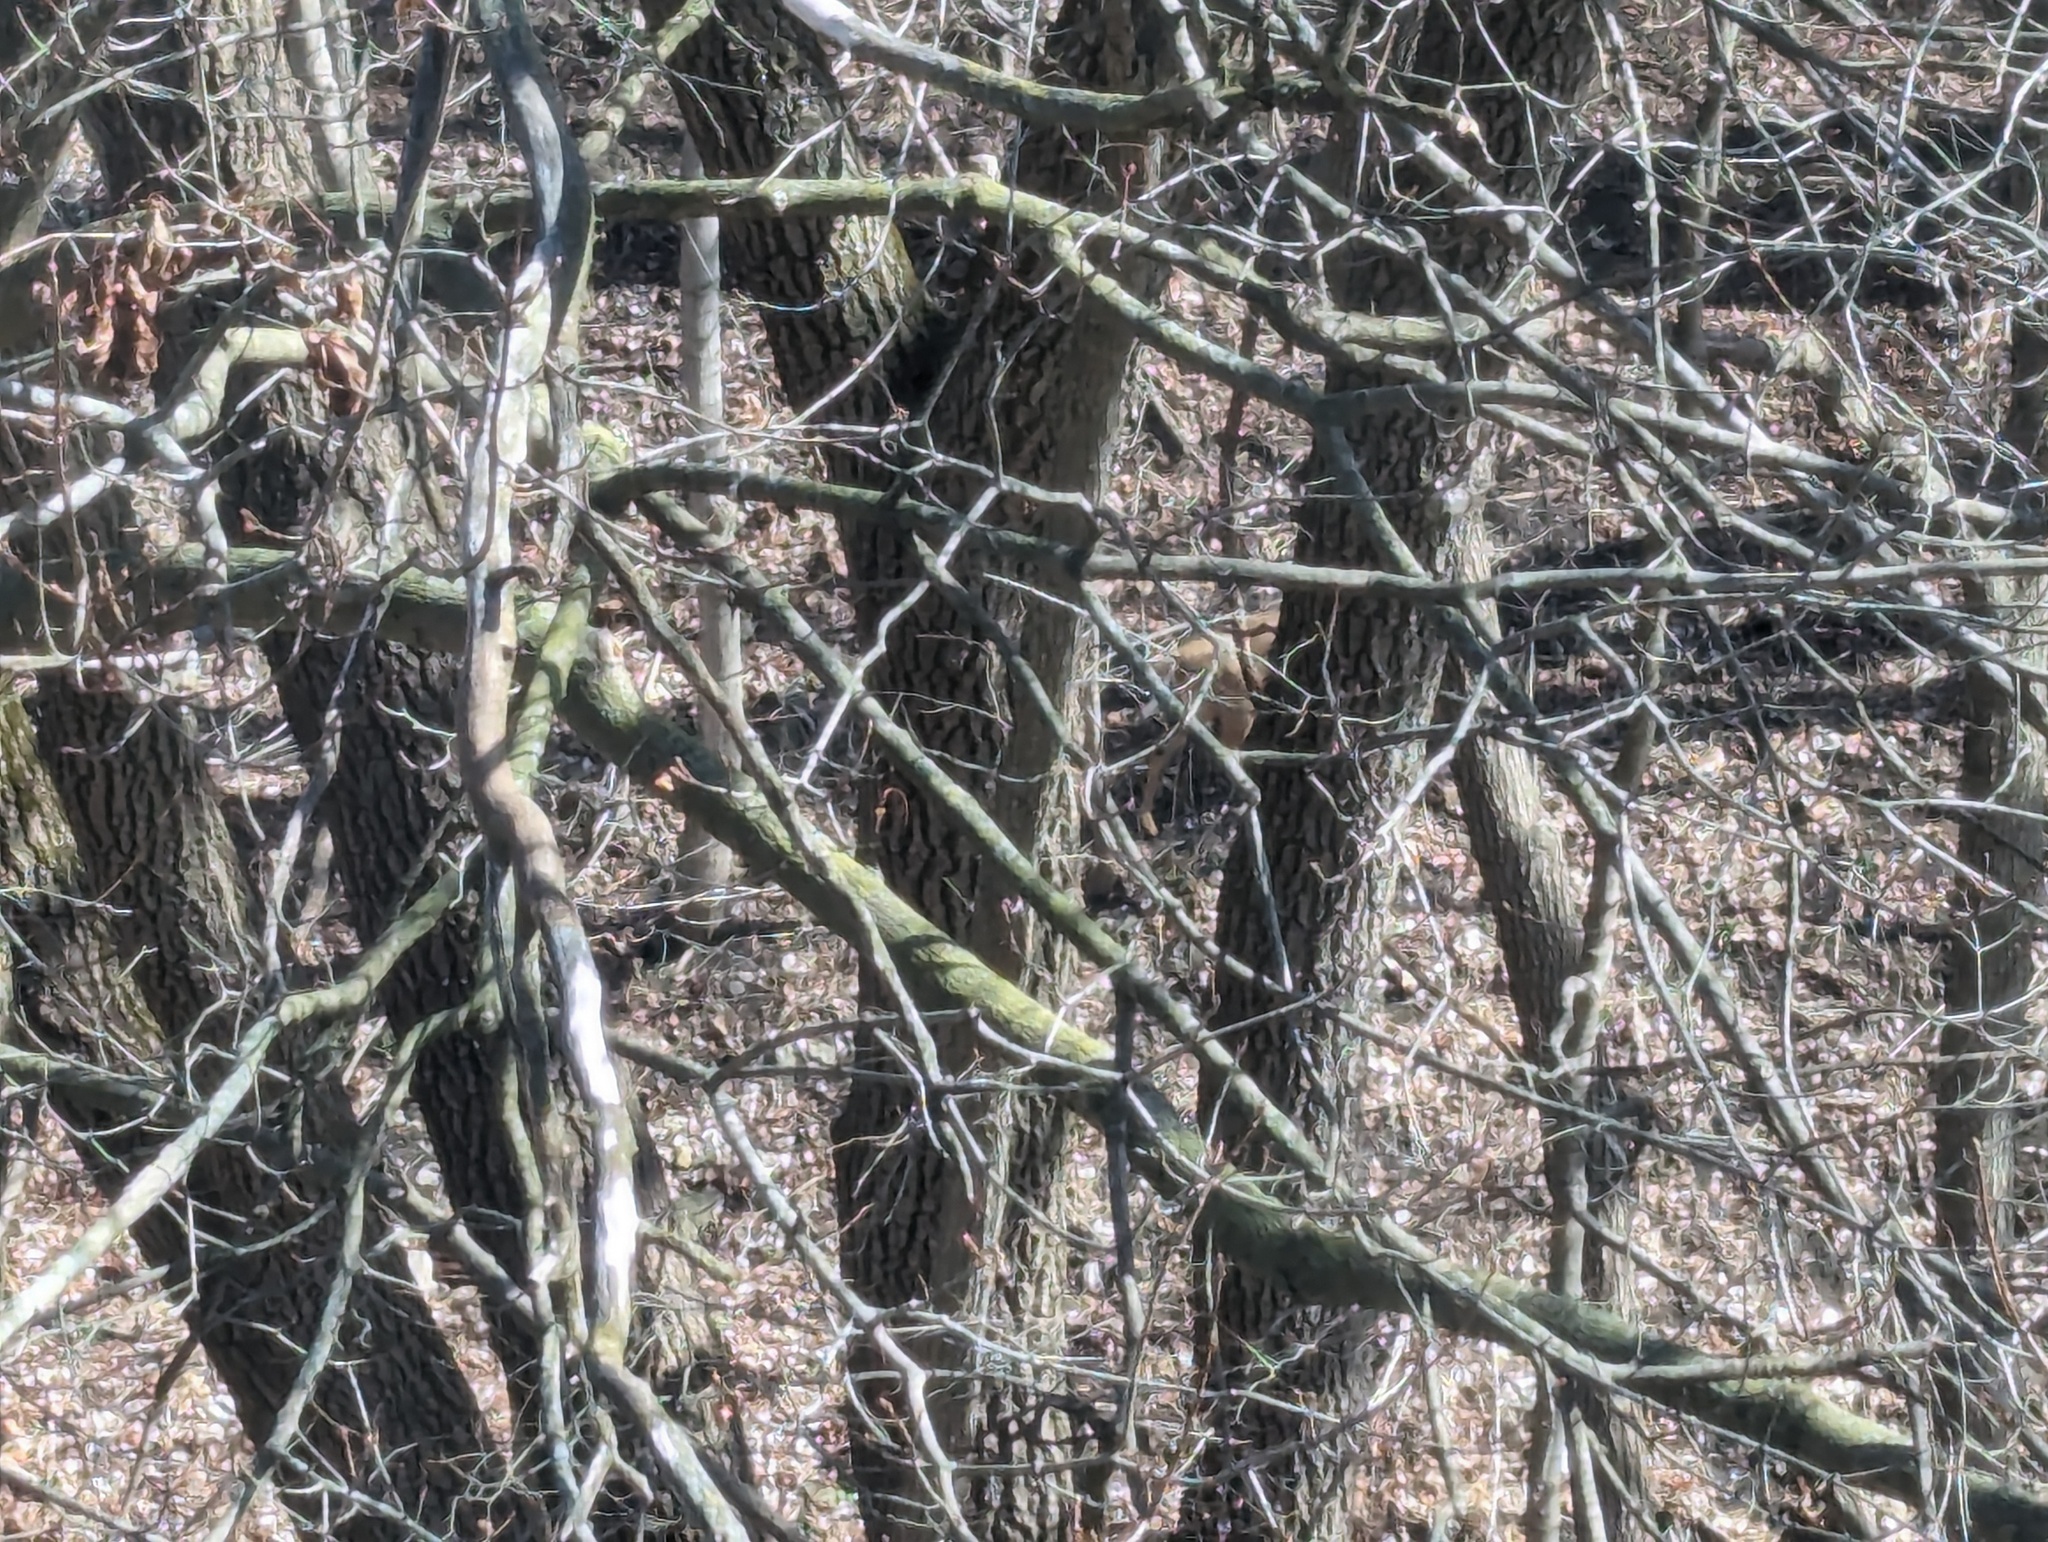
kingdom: Animalia
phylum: Chordata
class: Mammalia
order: Artiodactyla
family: Cervidae
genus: Odocoileus
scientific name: Odocoileus virginianus
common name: White-tailed deer
